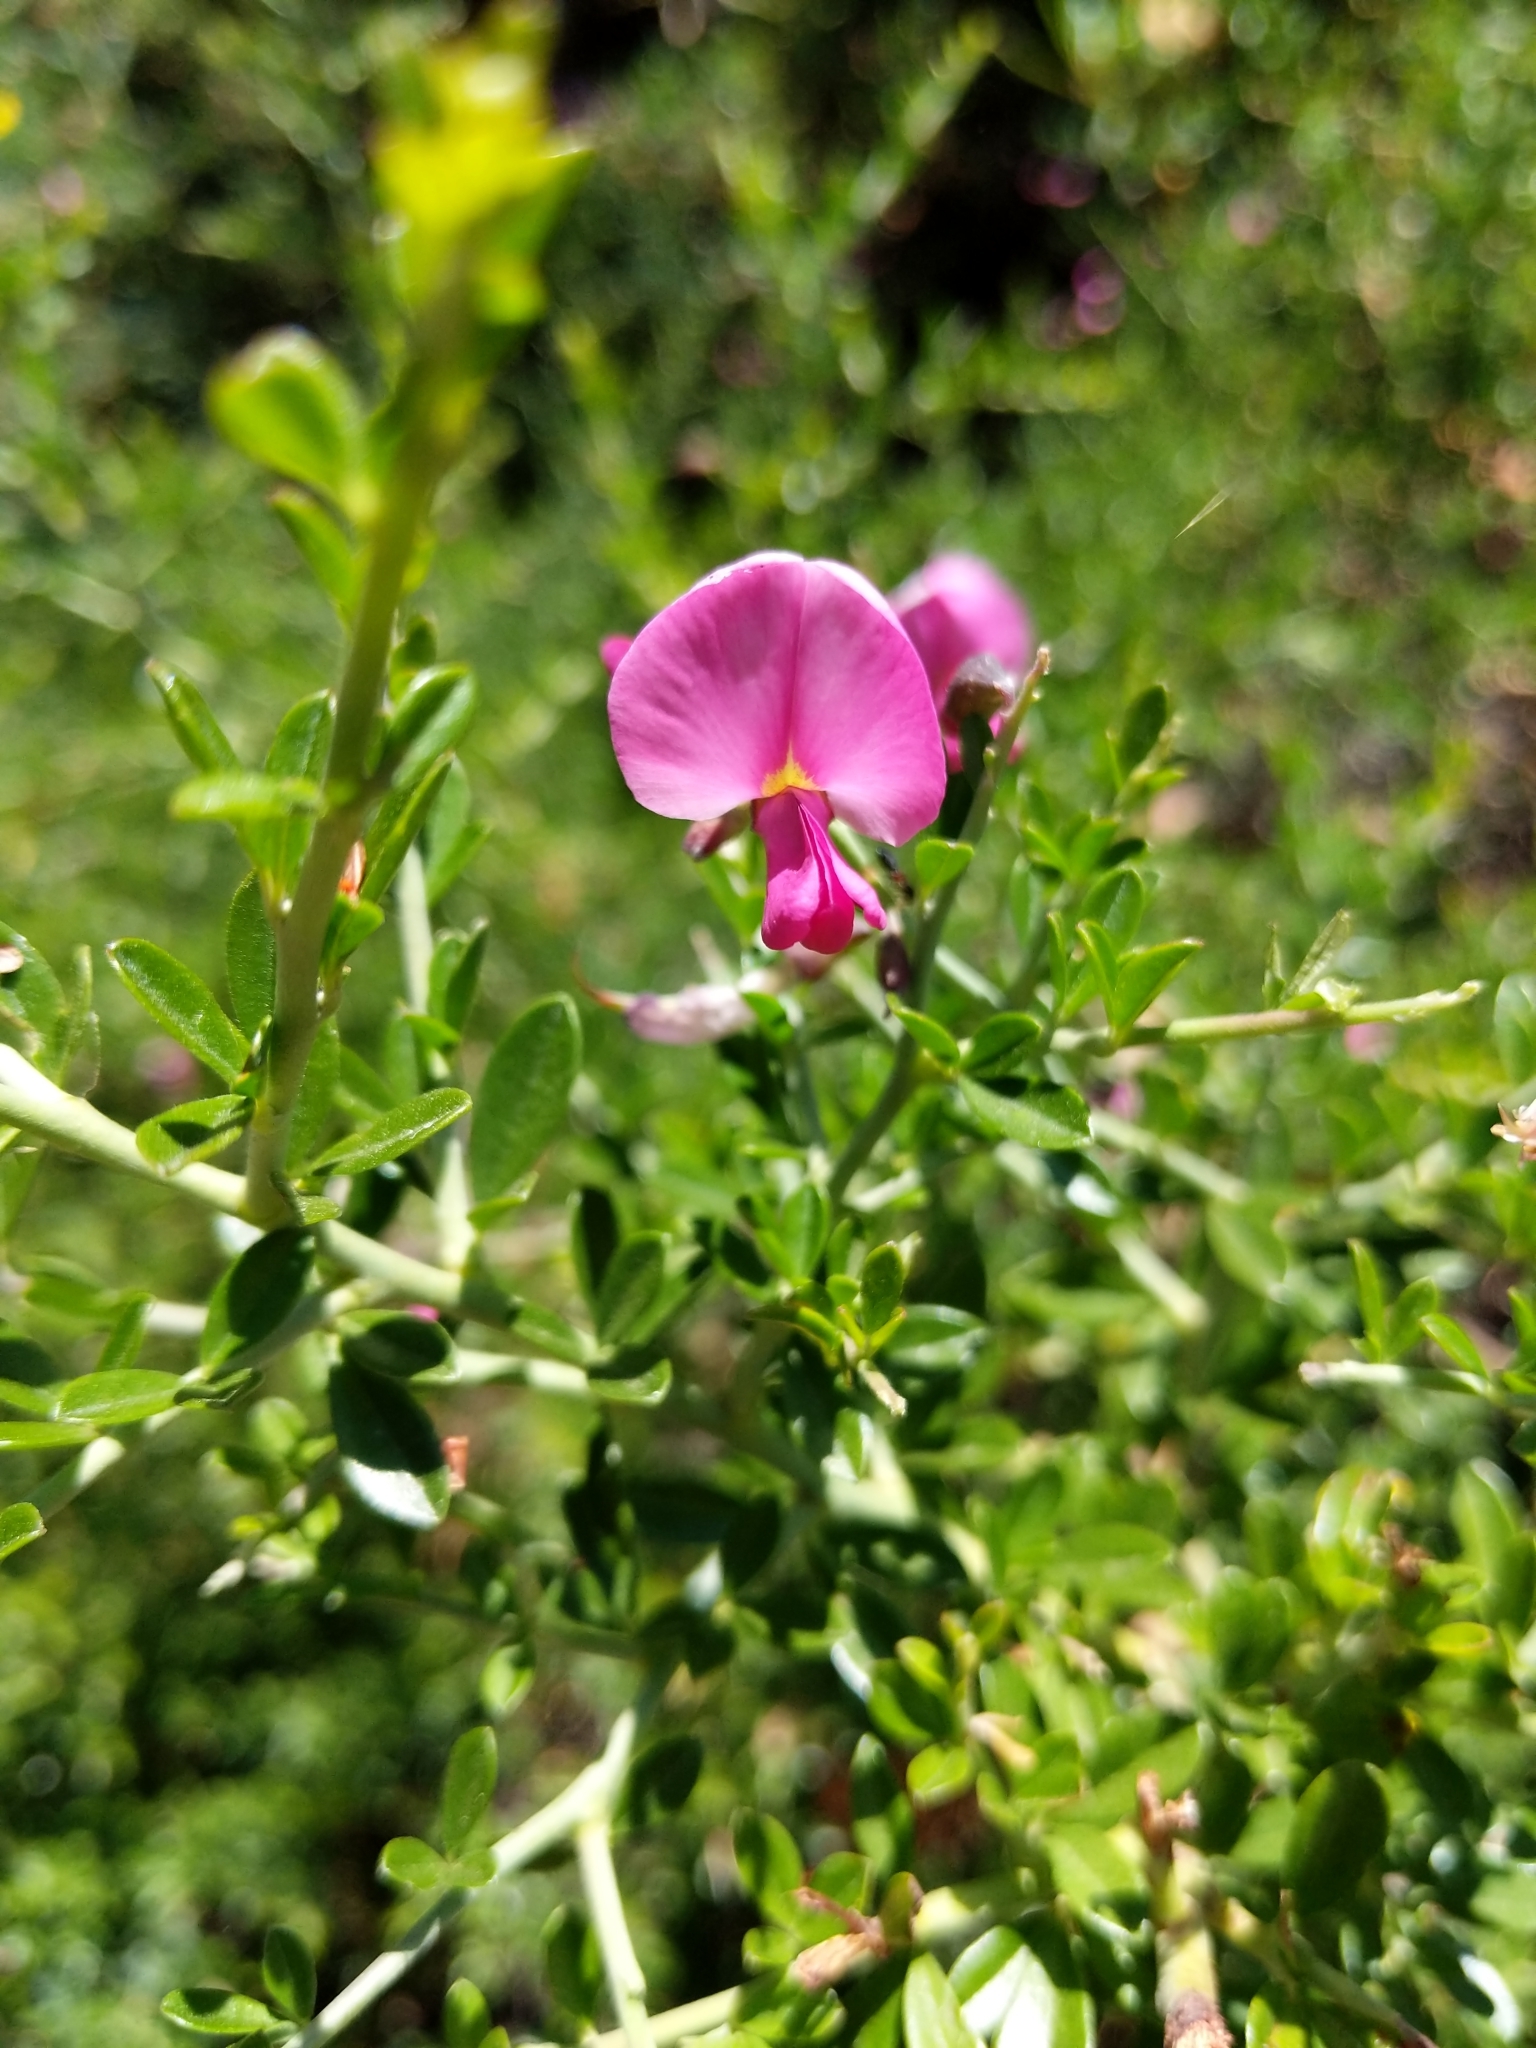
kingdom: Plantae
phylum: Tracheophyta
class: Magnoliopsida
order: Fabales
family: Fabaceae
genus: Pickeringia
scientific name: Pickeringia montana
